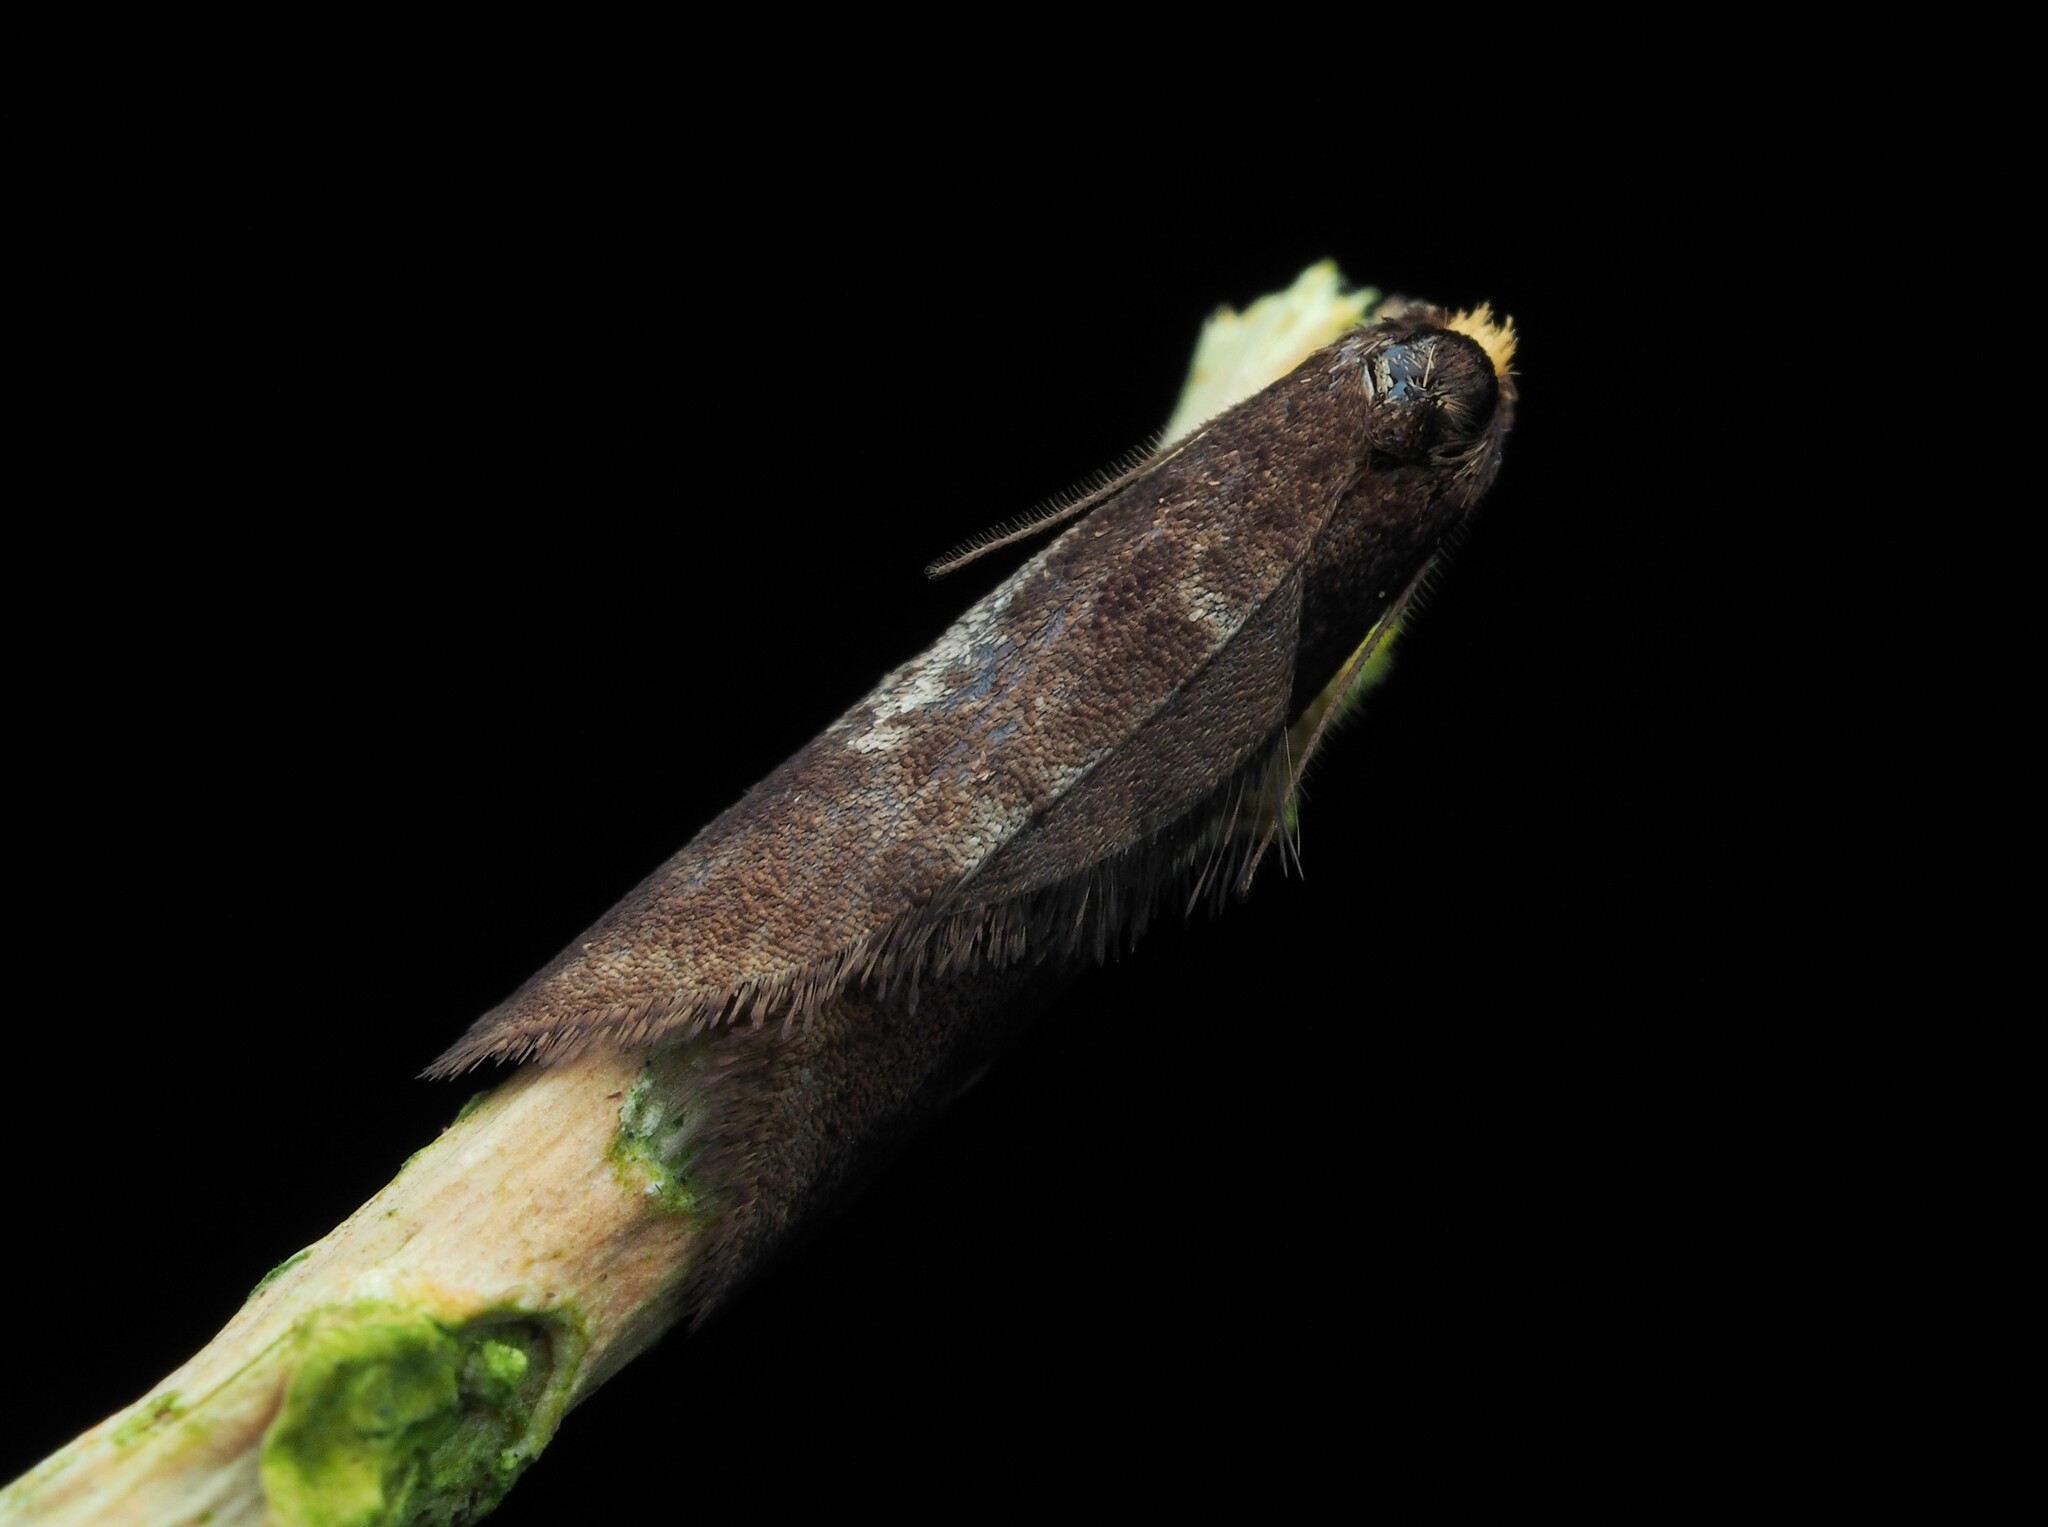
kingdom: Animalia
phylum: Arthropoda
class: Insecta
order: Lepidoptera
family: Psychidae
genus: Lepidoscia
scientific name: Lepidoscia lainodes
